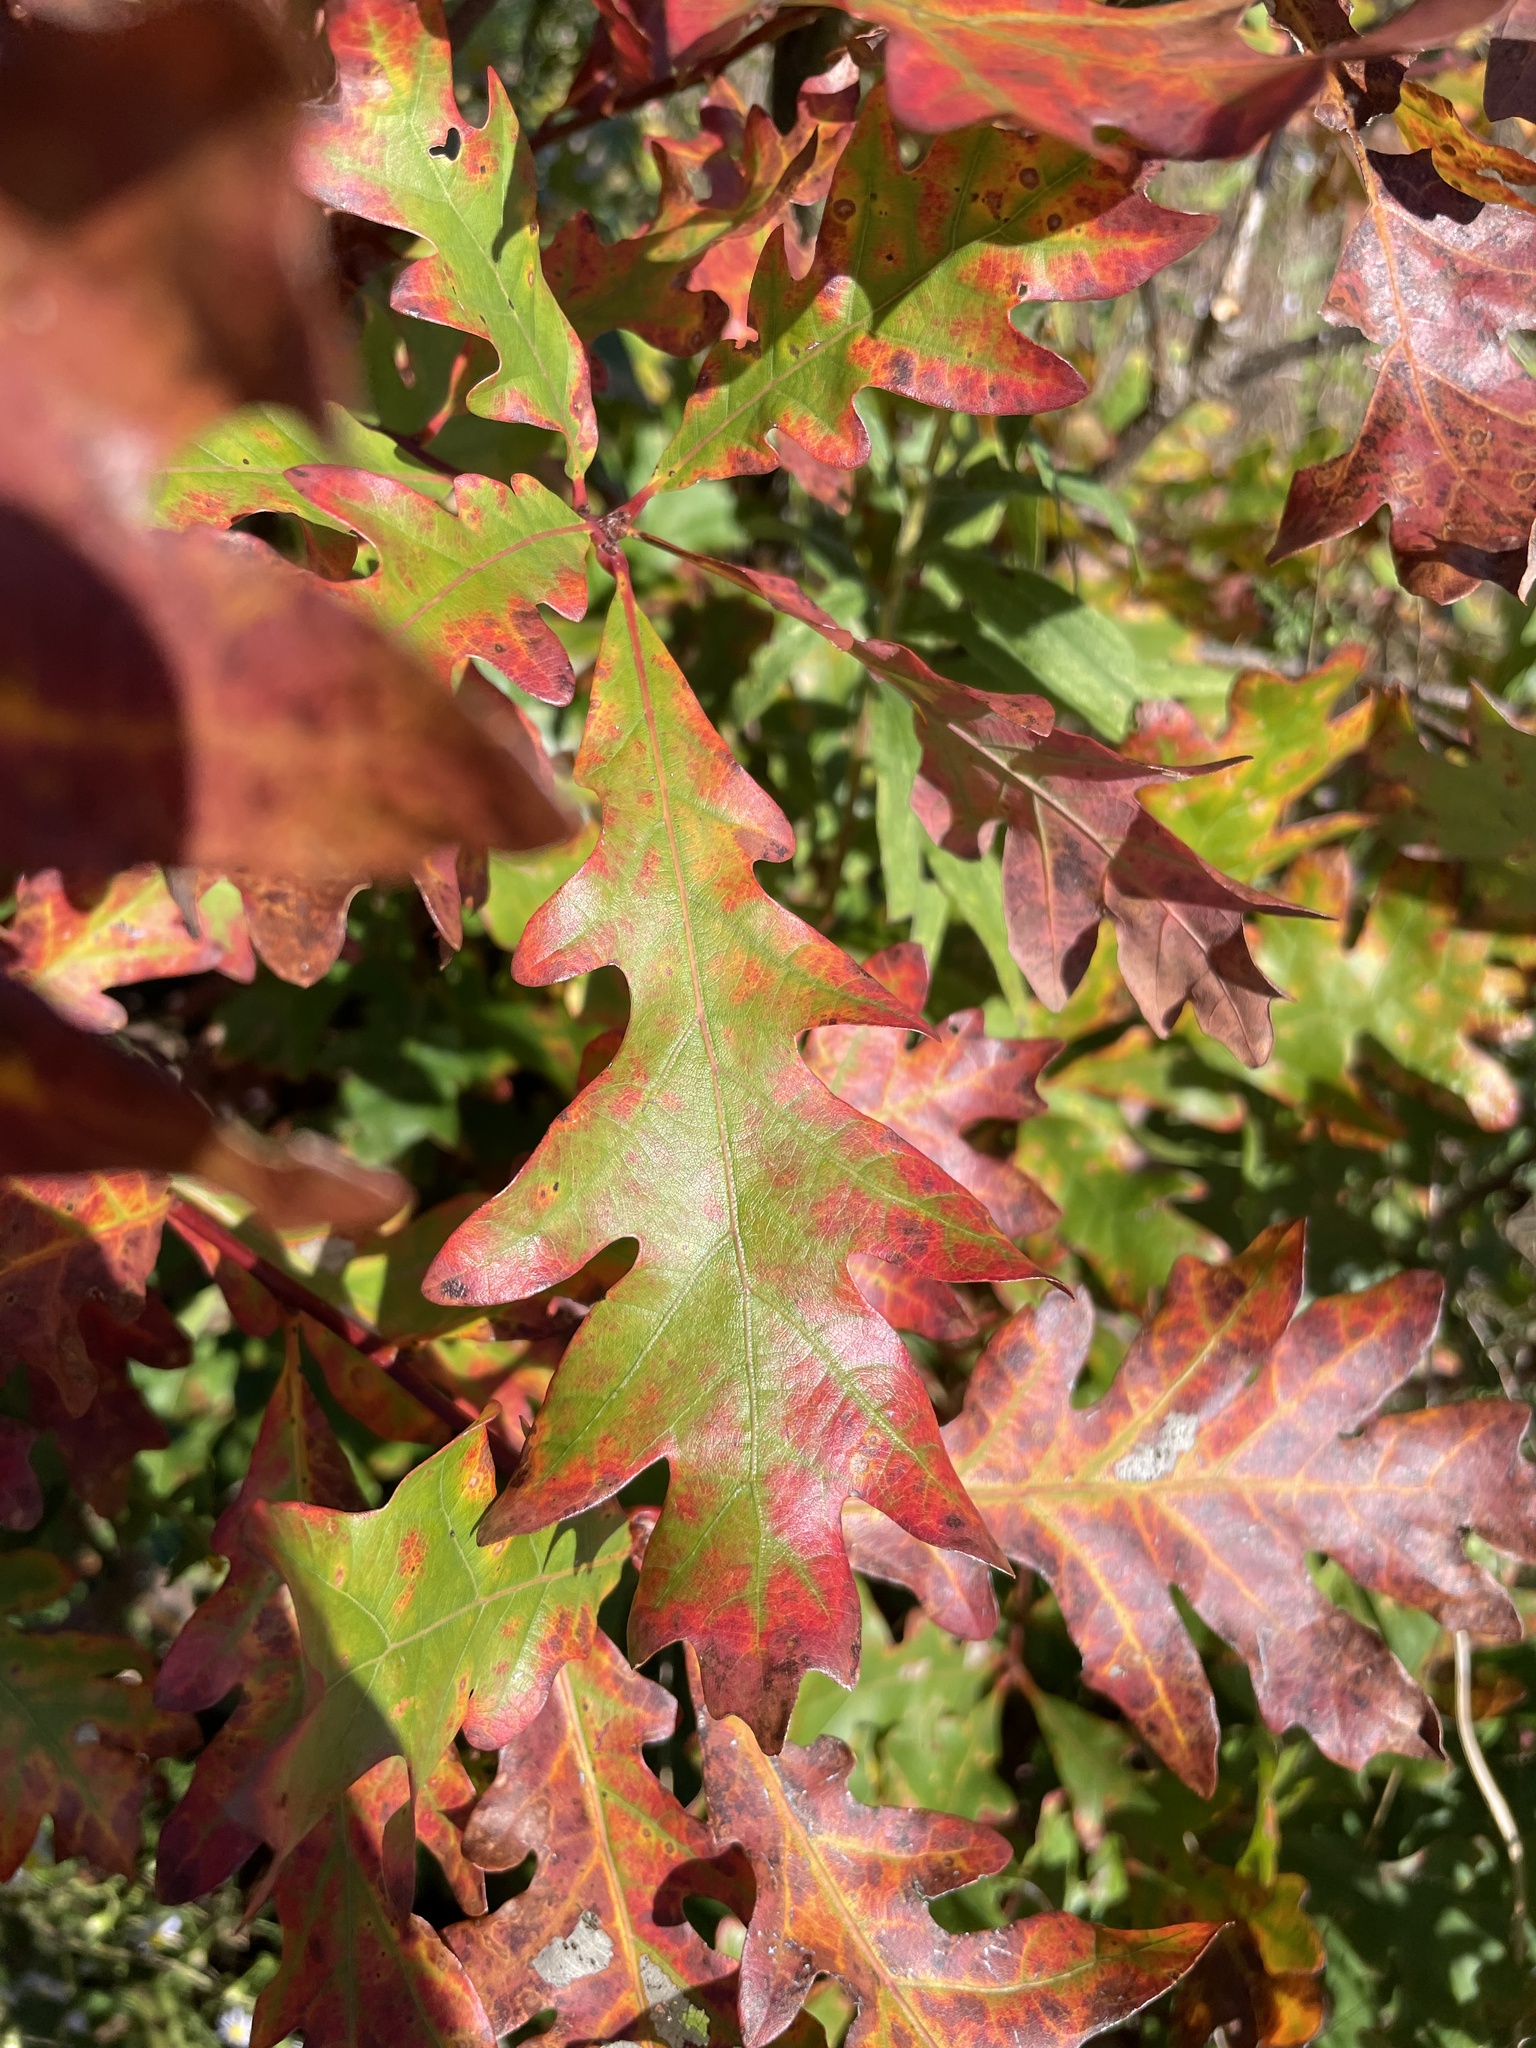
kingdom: Plantae
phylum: Tracheophyta
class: Magnoliopsida
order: Fagales
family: Fagaceae
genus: Quercus
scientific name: Quercus alba
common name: White oak
